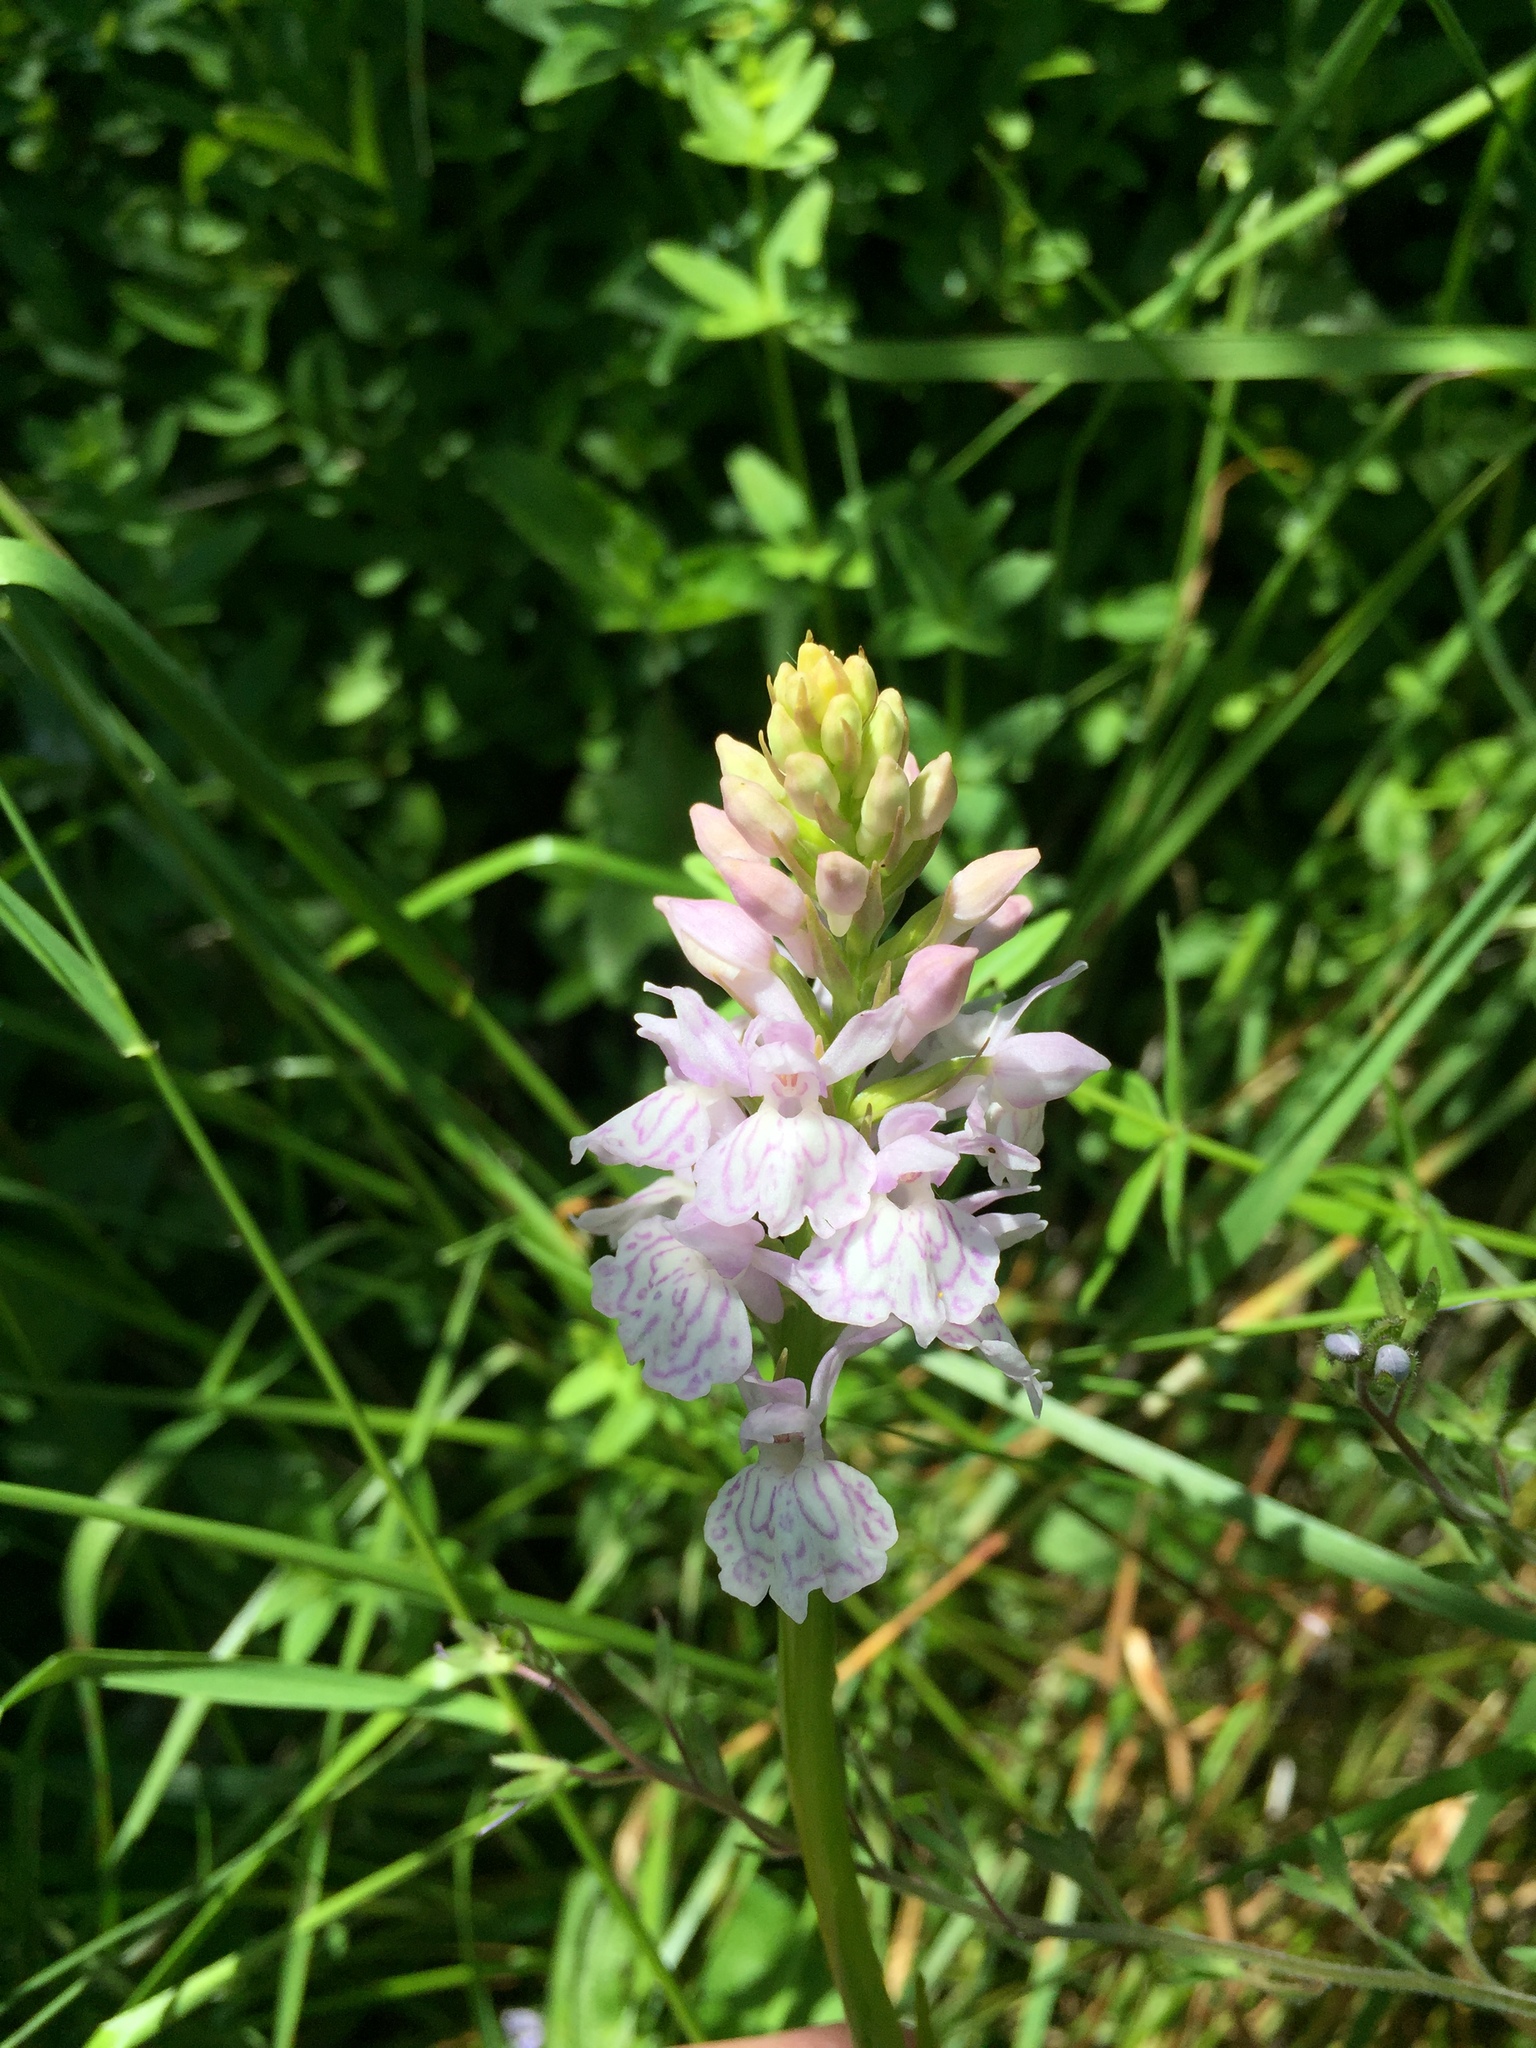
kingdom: Plantae
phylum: Tracheophyta
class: Liliopsida
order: Asparagales
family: Orchidaceae
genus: Dactylorhiza
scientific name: Dactylorhiza maculata
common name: Heath spotted-orchid
